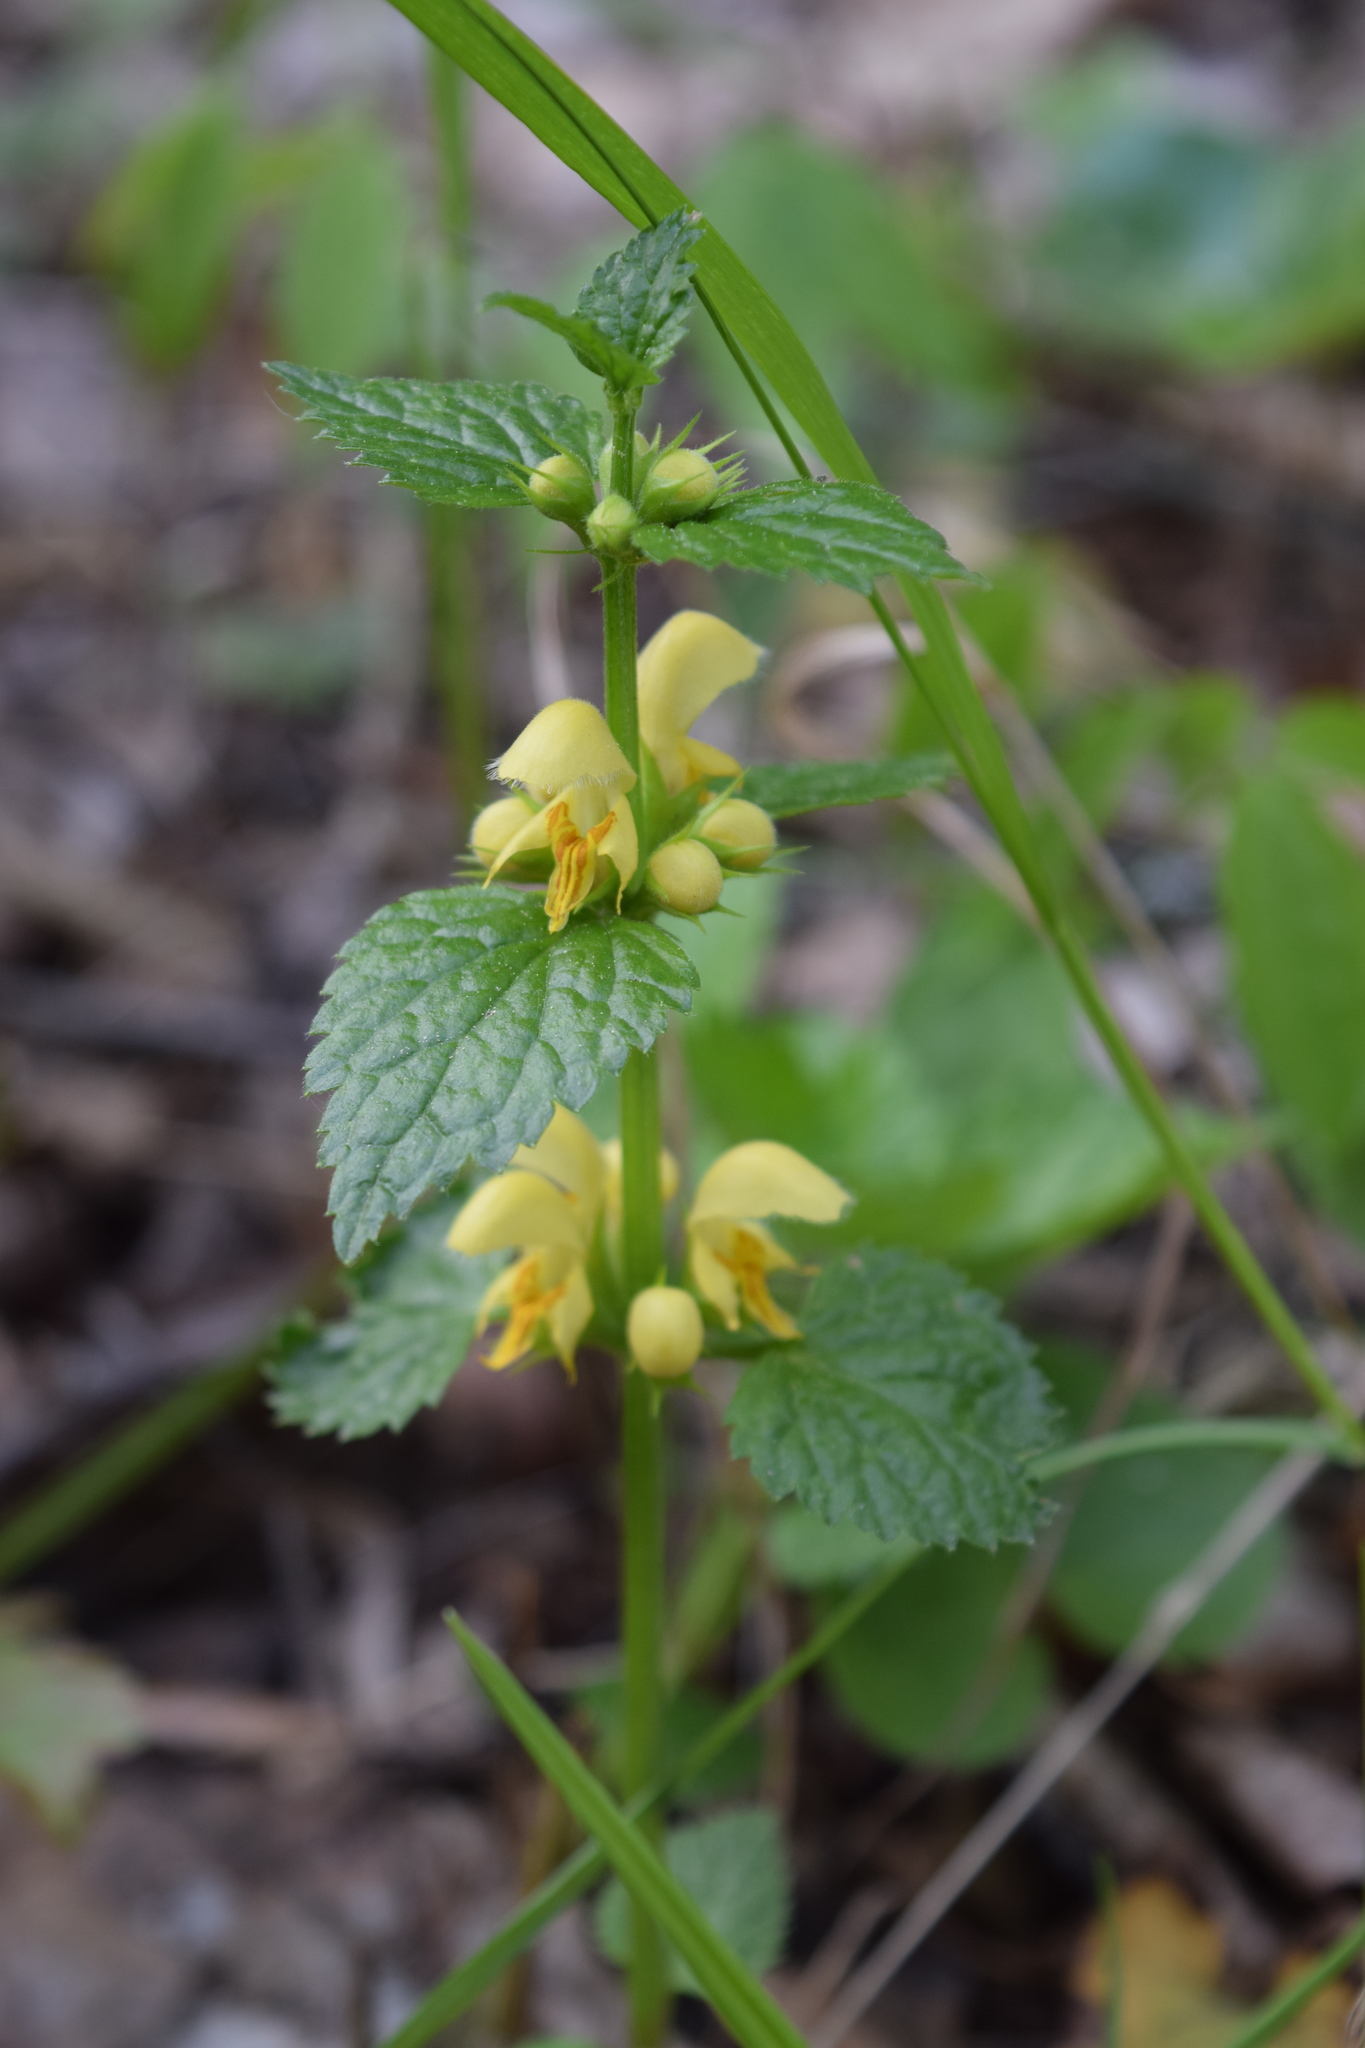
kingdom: Plantae
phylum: Tracheophyta
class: Magnoliopsida
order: Lamiales
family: Lamiaceae
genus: Lamium
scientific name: Lamium galeobdolon
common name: Yellow archangel
